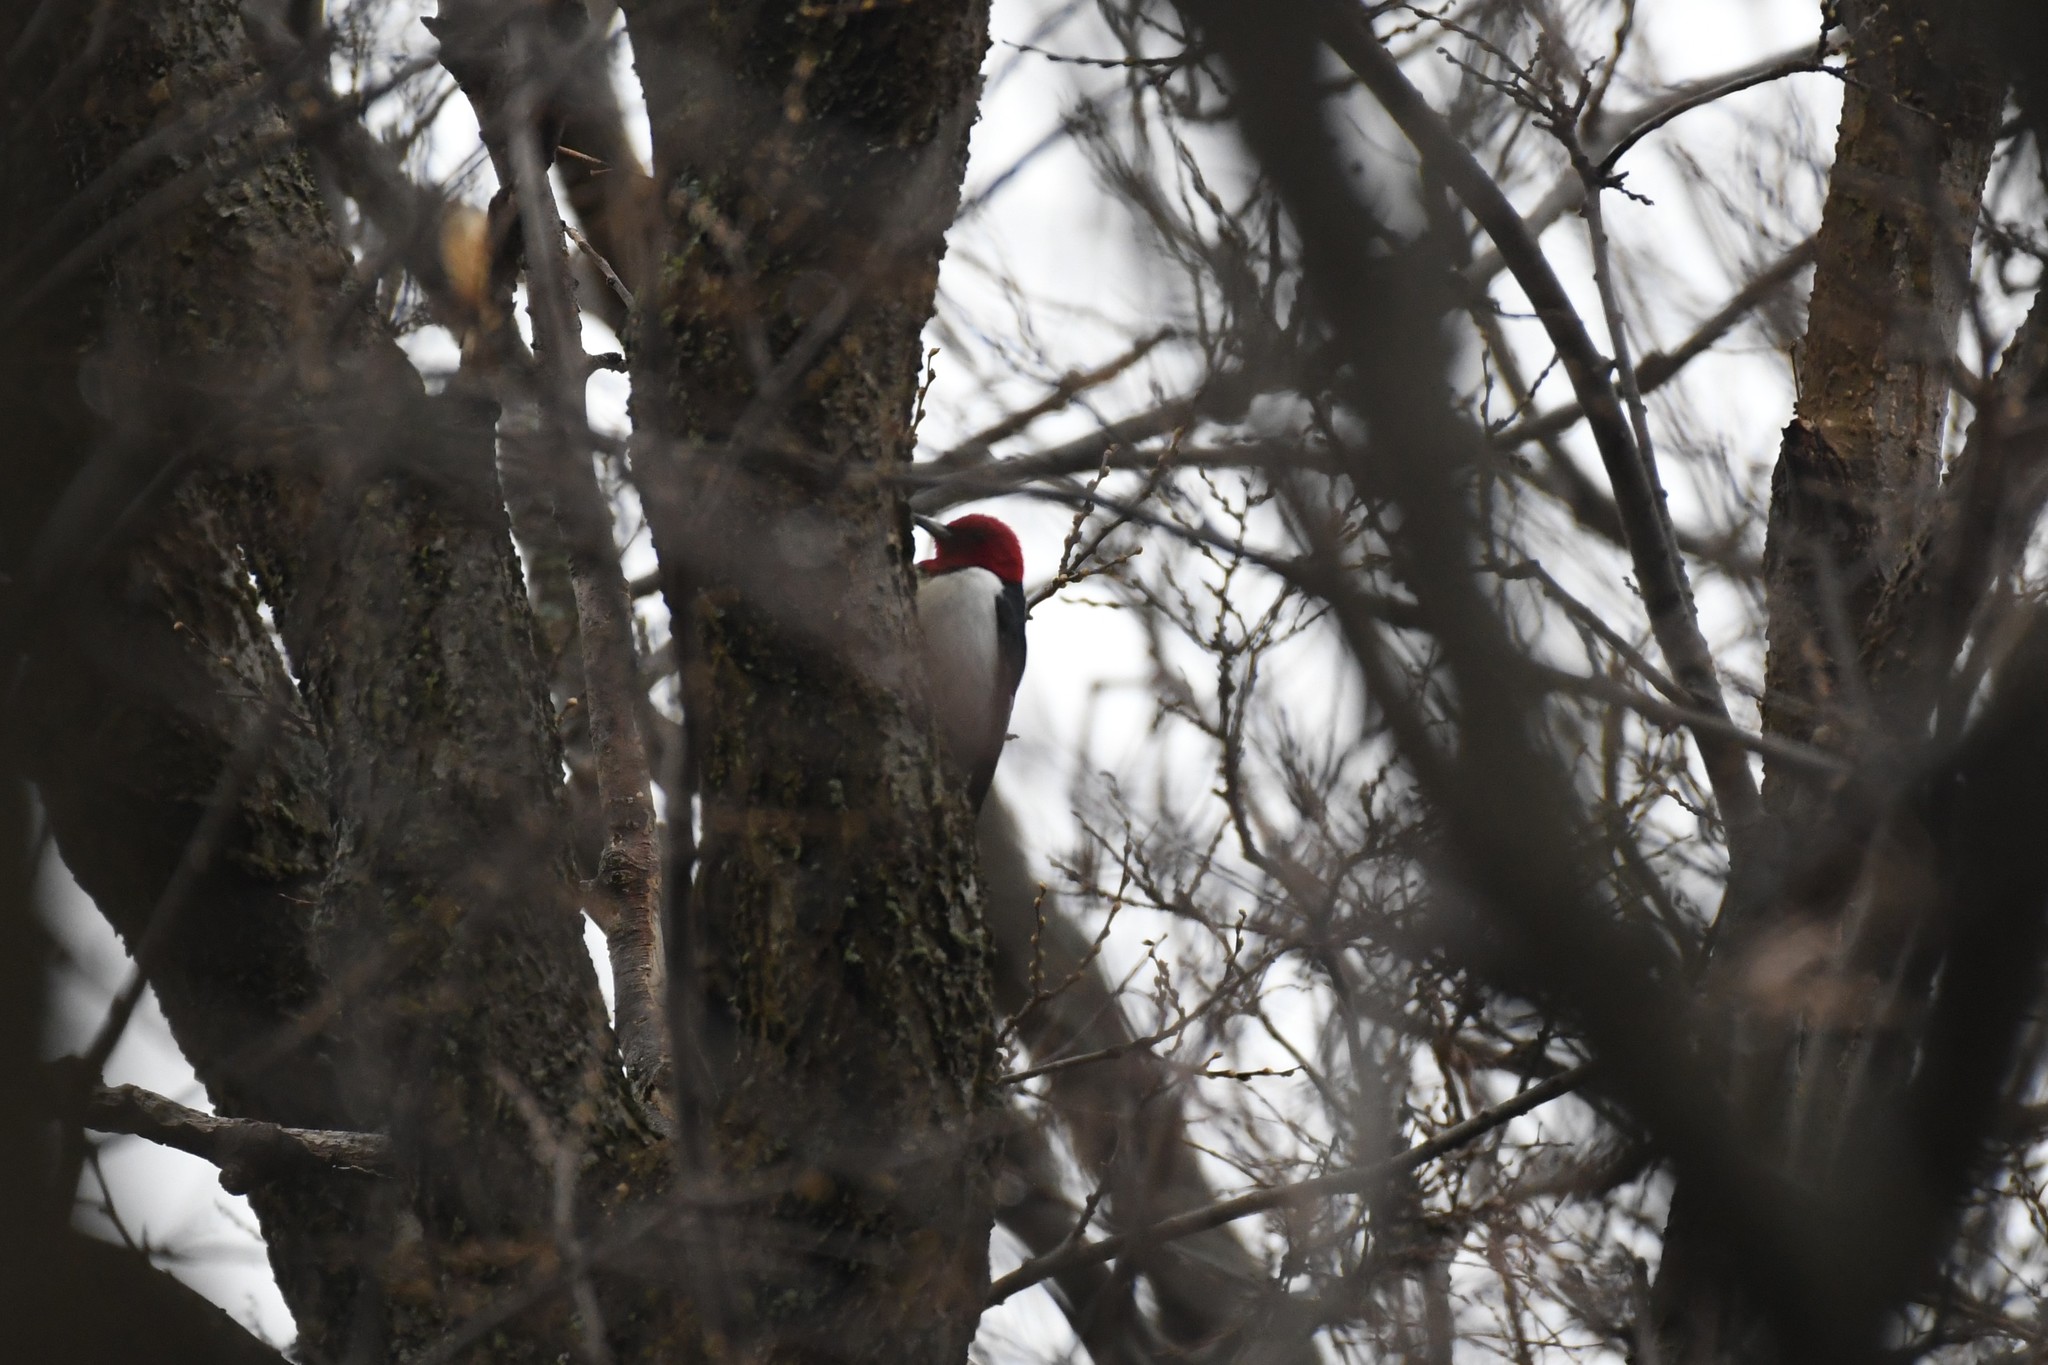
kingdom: Animalia
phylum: Chordata
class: Aves
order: Piciformes
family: Picidae
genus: Melanerpes
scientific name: Melanerpes erythrocephalus
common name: Red-headed woodpecker
